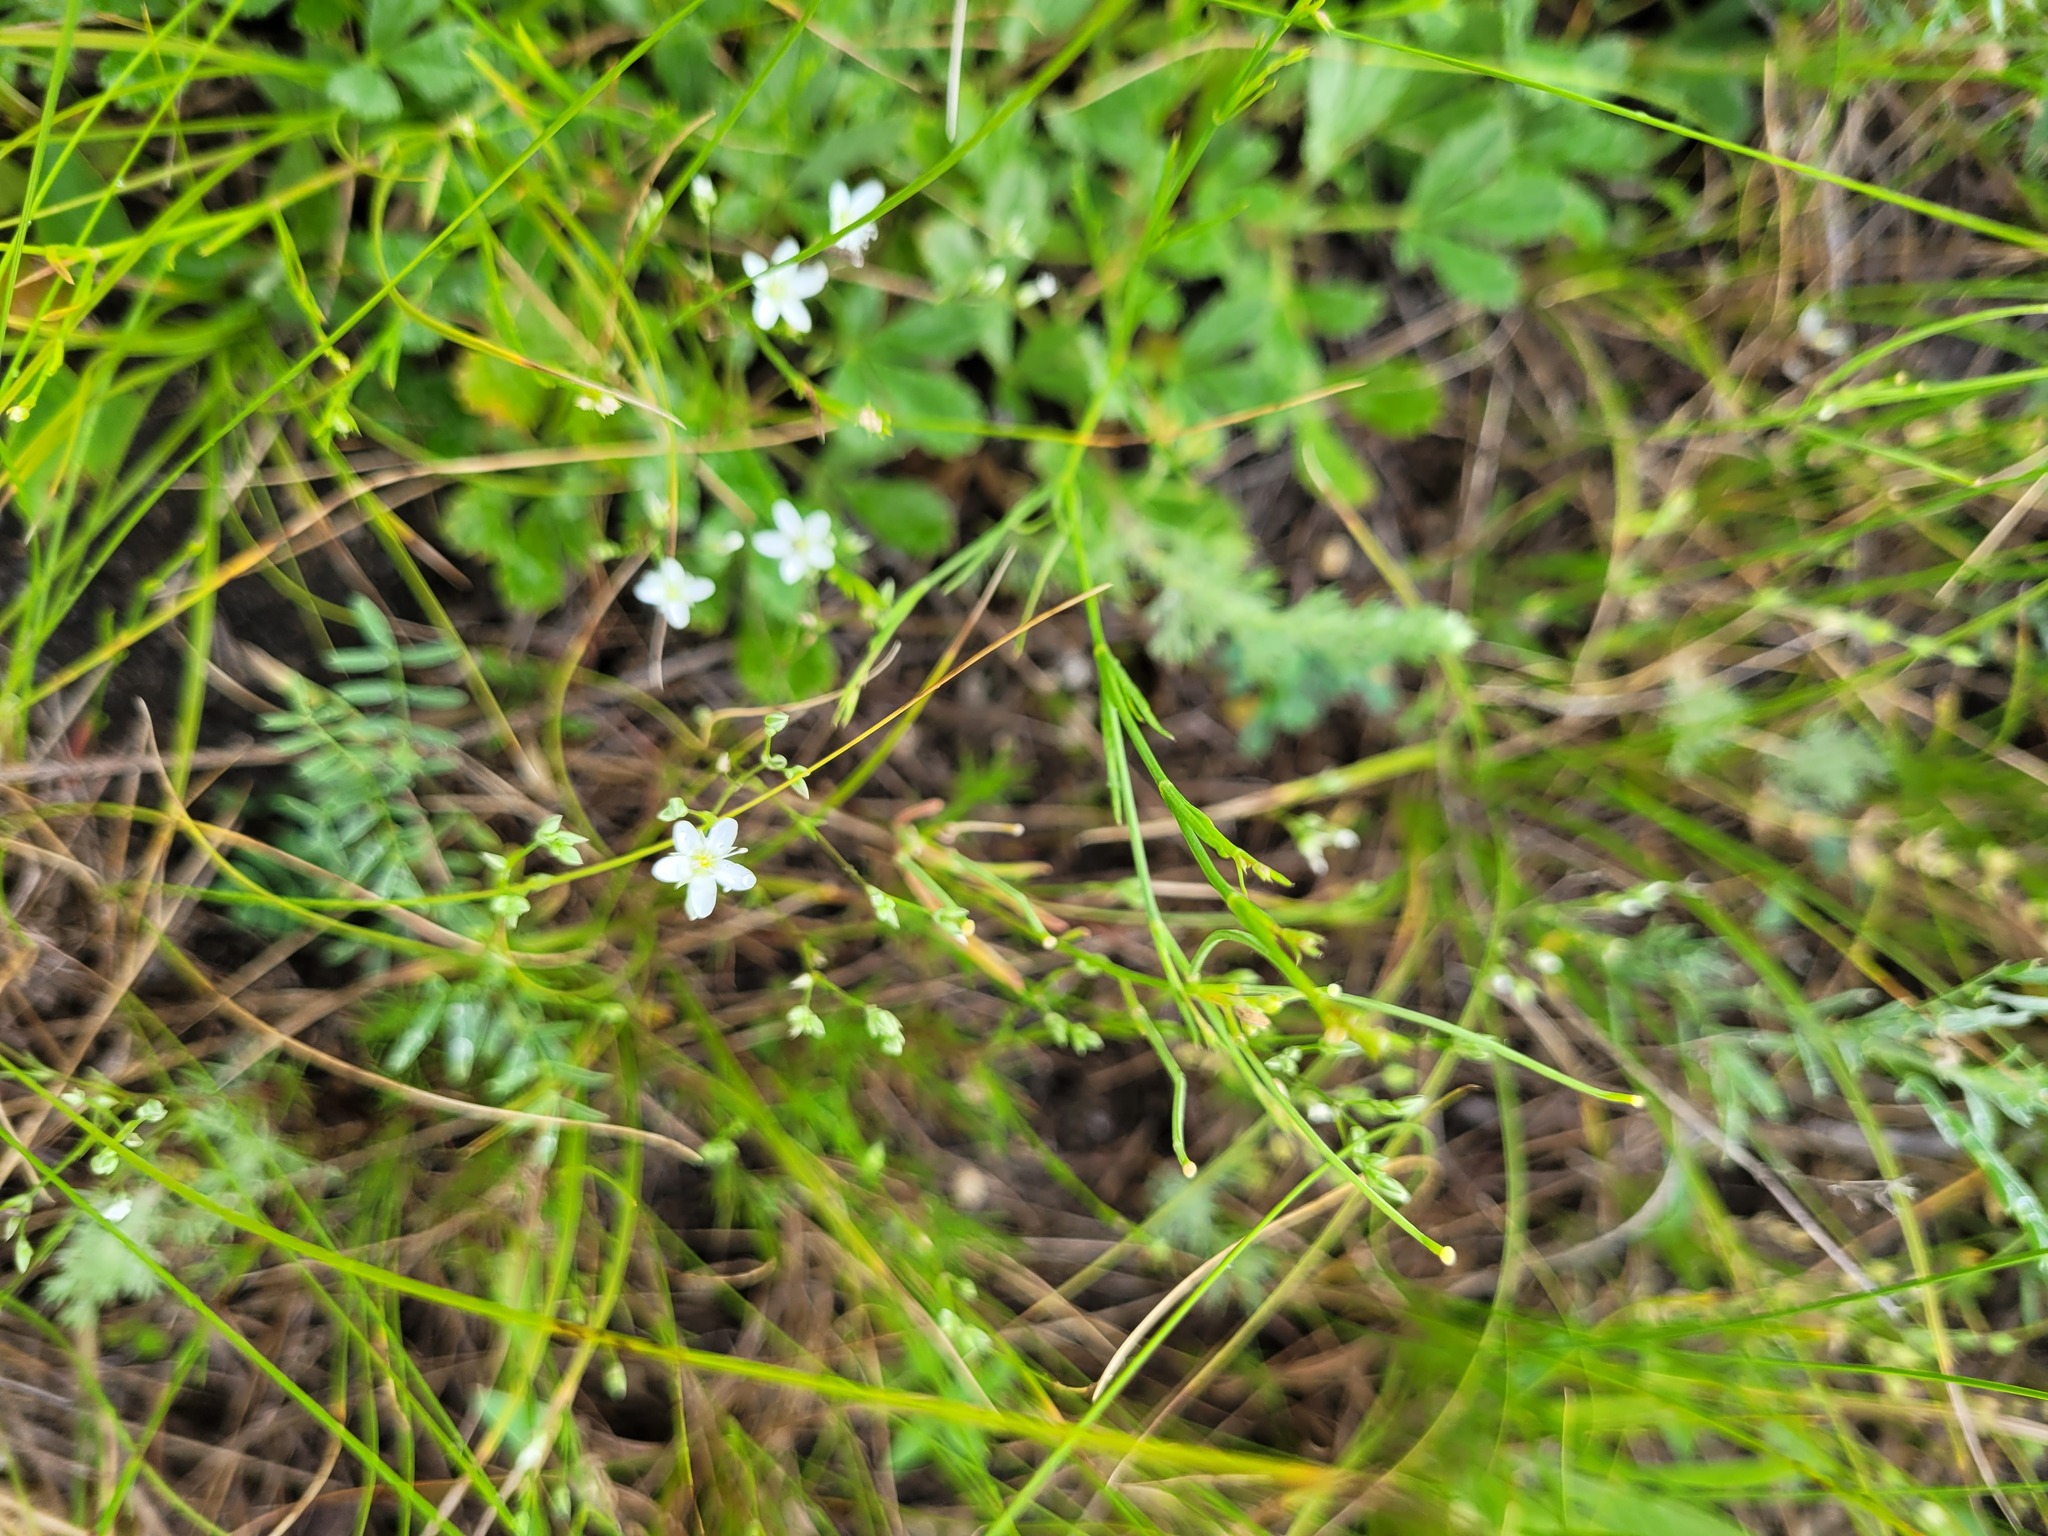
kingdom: Plantae
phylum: Tracheophyta
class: Magnoliopsida
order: Caryophyllales
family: Caryophyllaceae
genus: Minuartia
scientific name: Minuartia setacea
